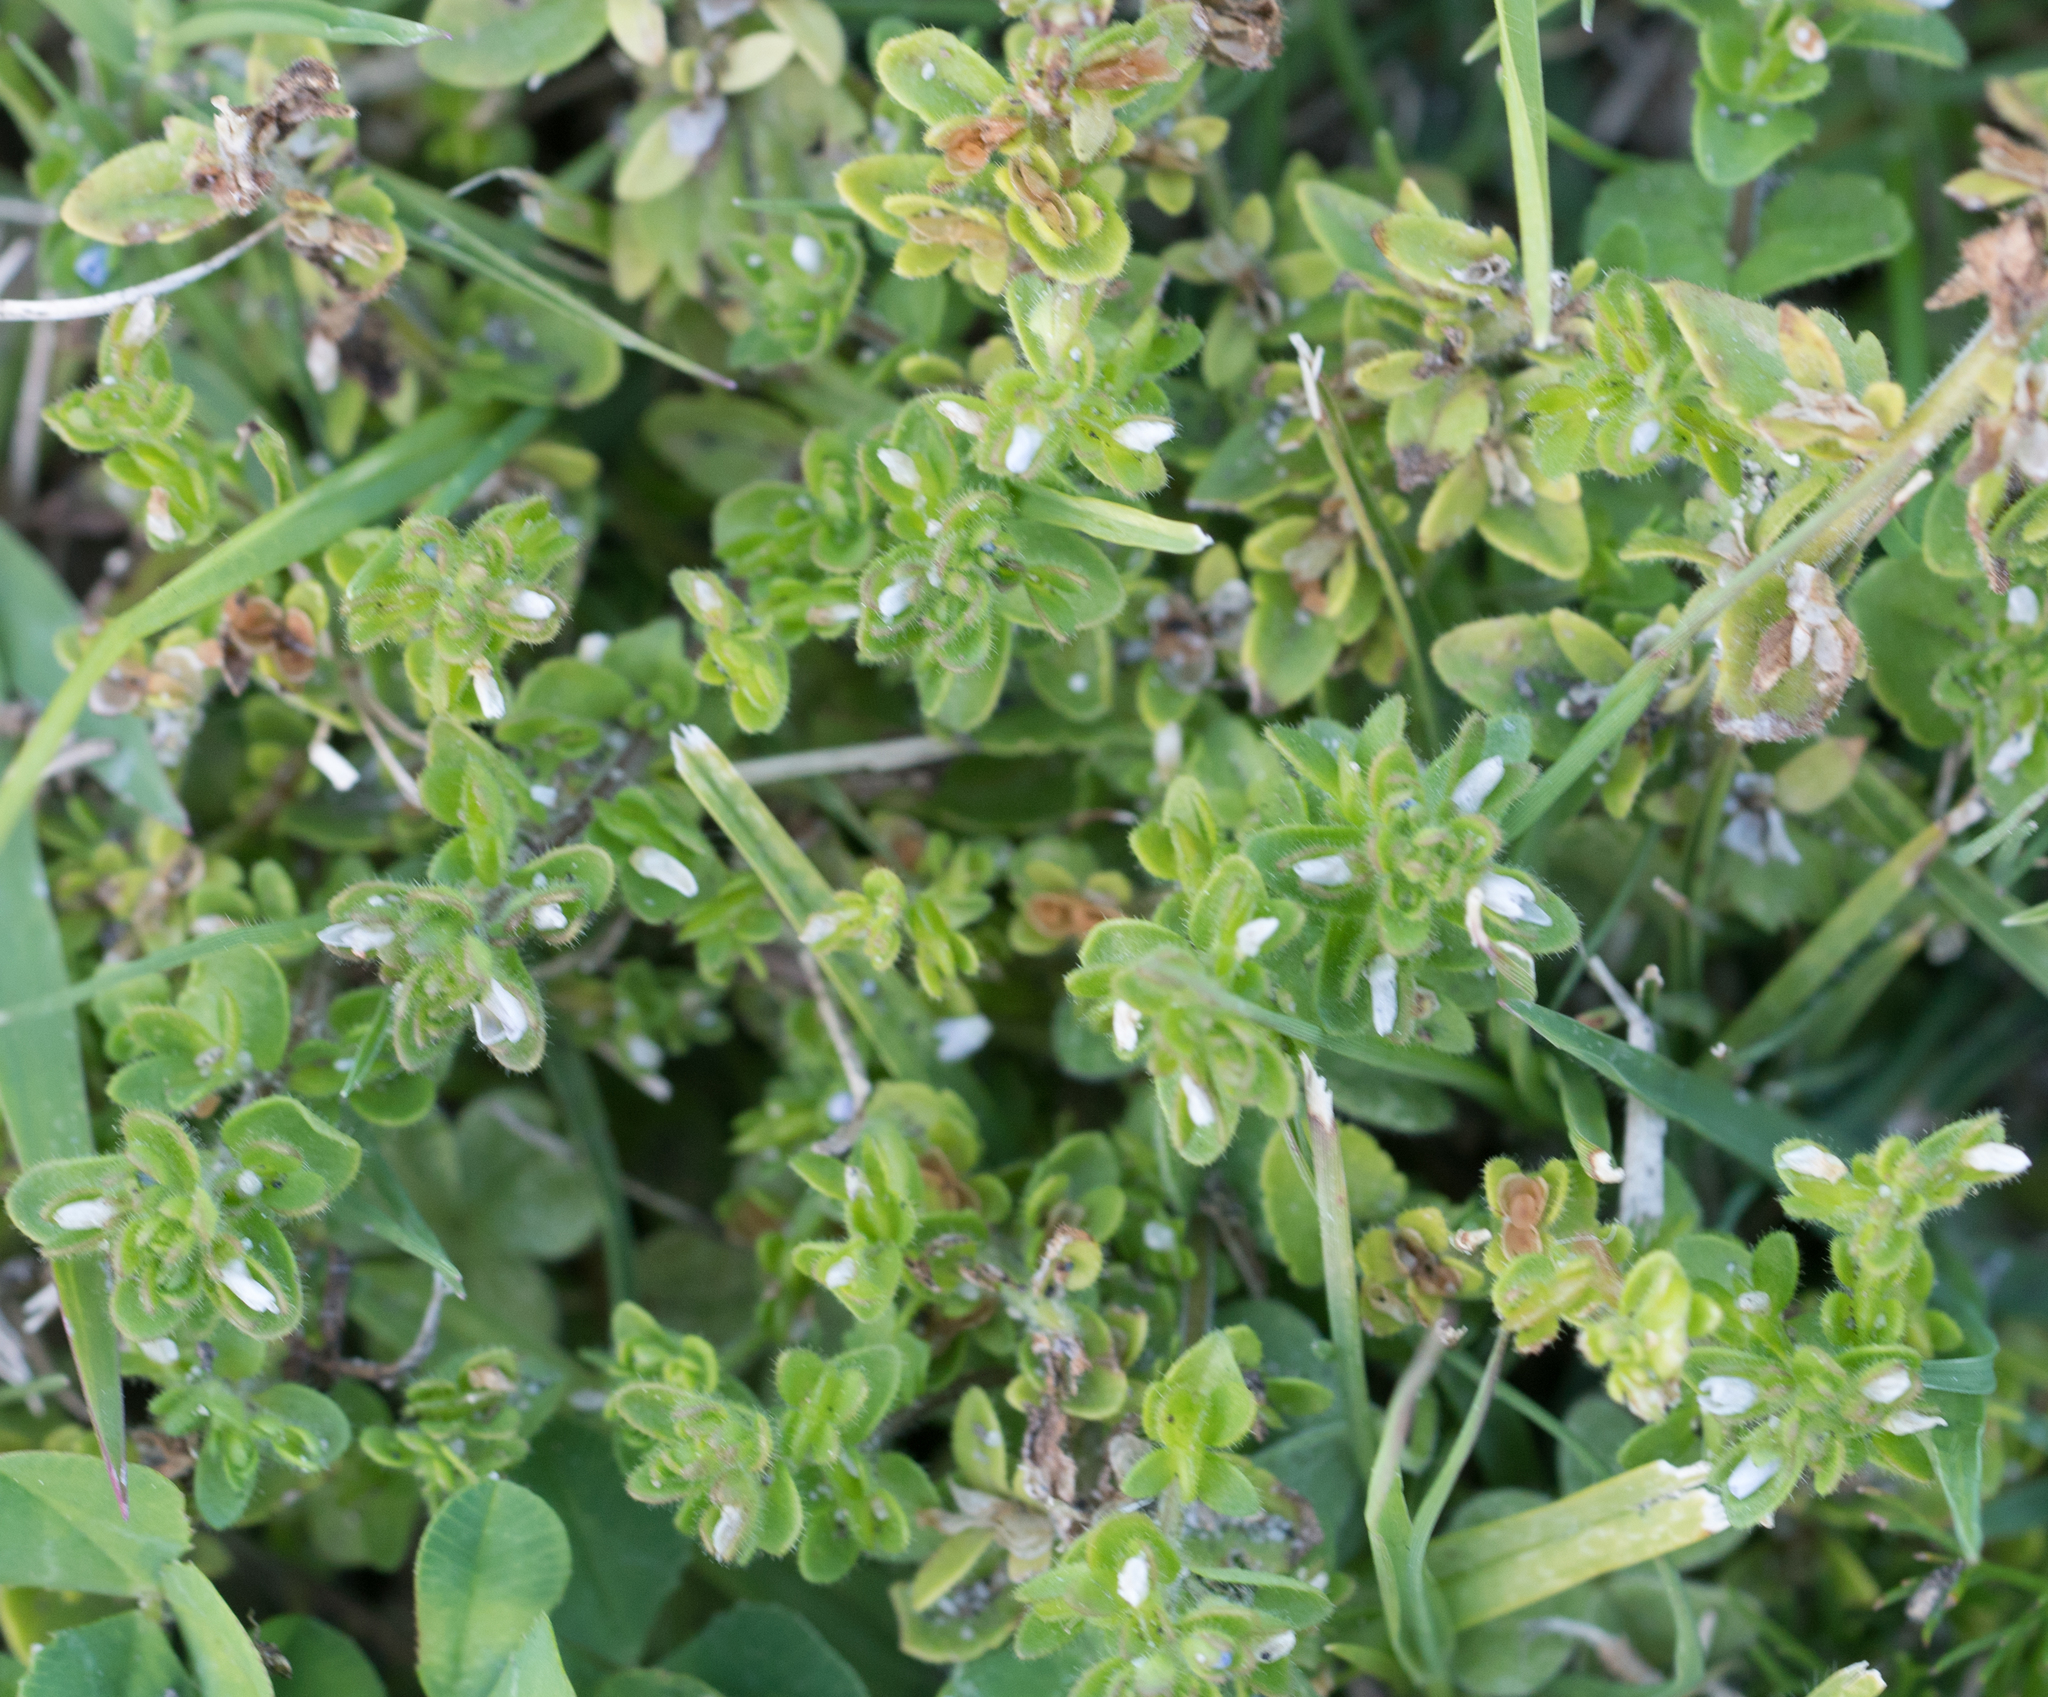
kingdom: Plantae
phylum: Tracheophyta
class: Magnoliopsida
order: Lamiales
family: Plantaginaceae
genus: Veronica
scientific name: Veronica arvensis
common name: Corn speedwell
